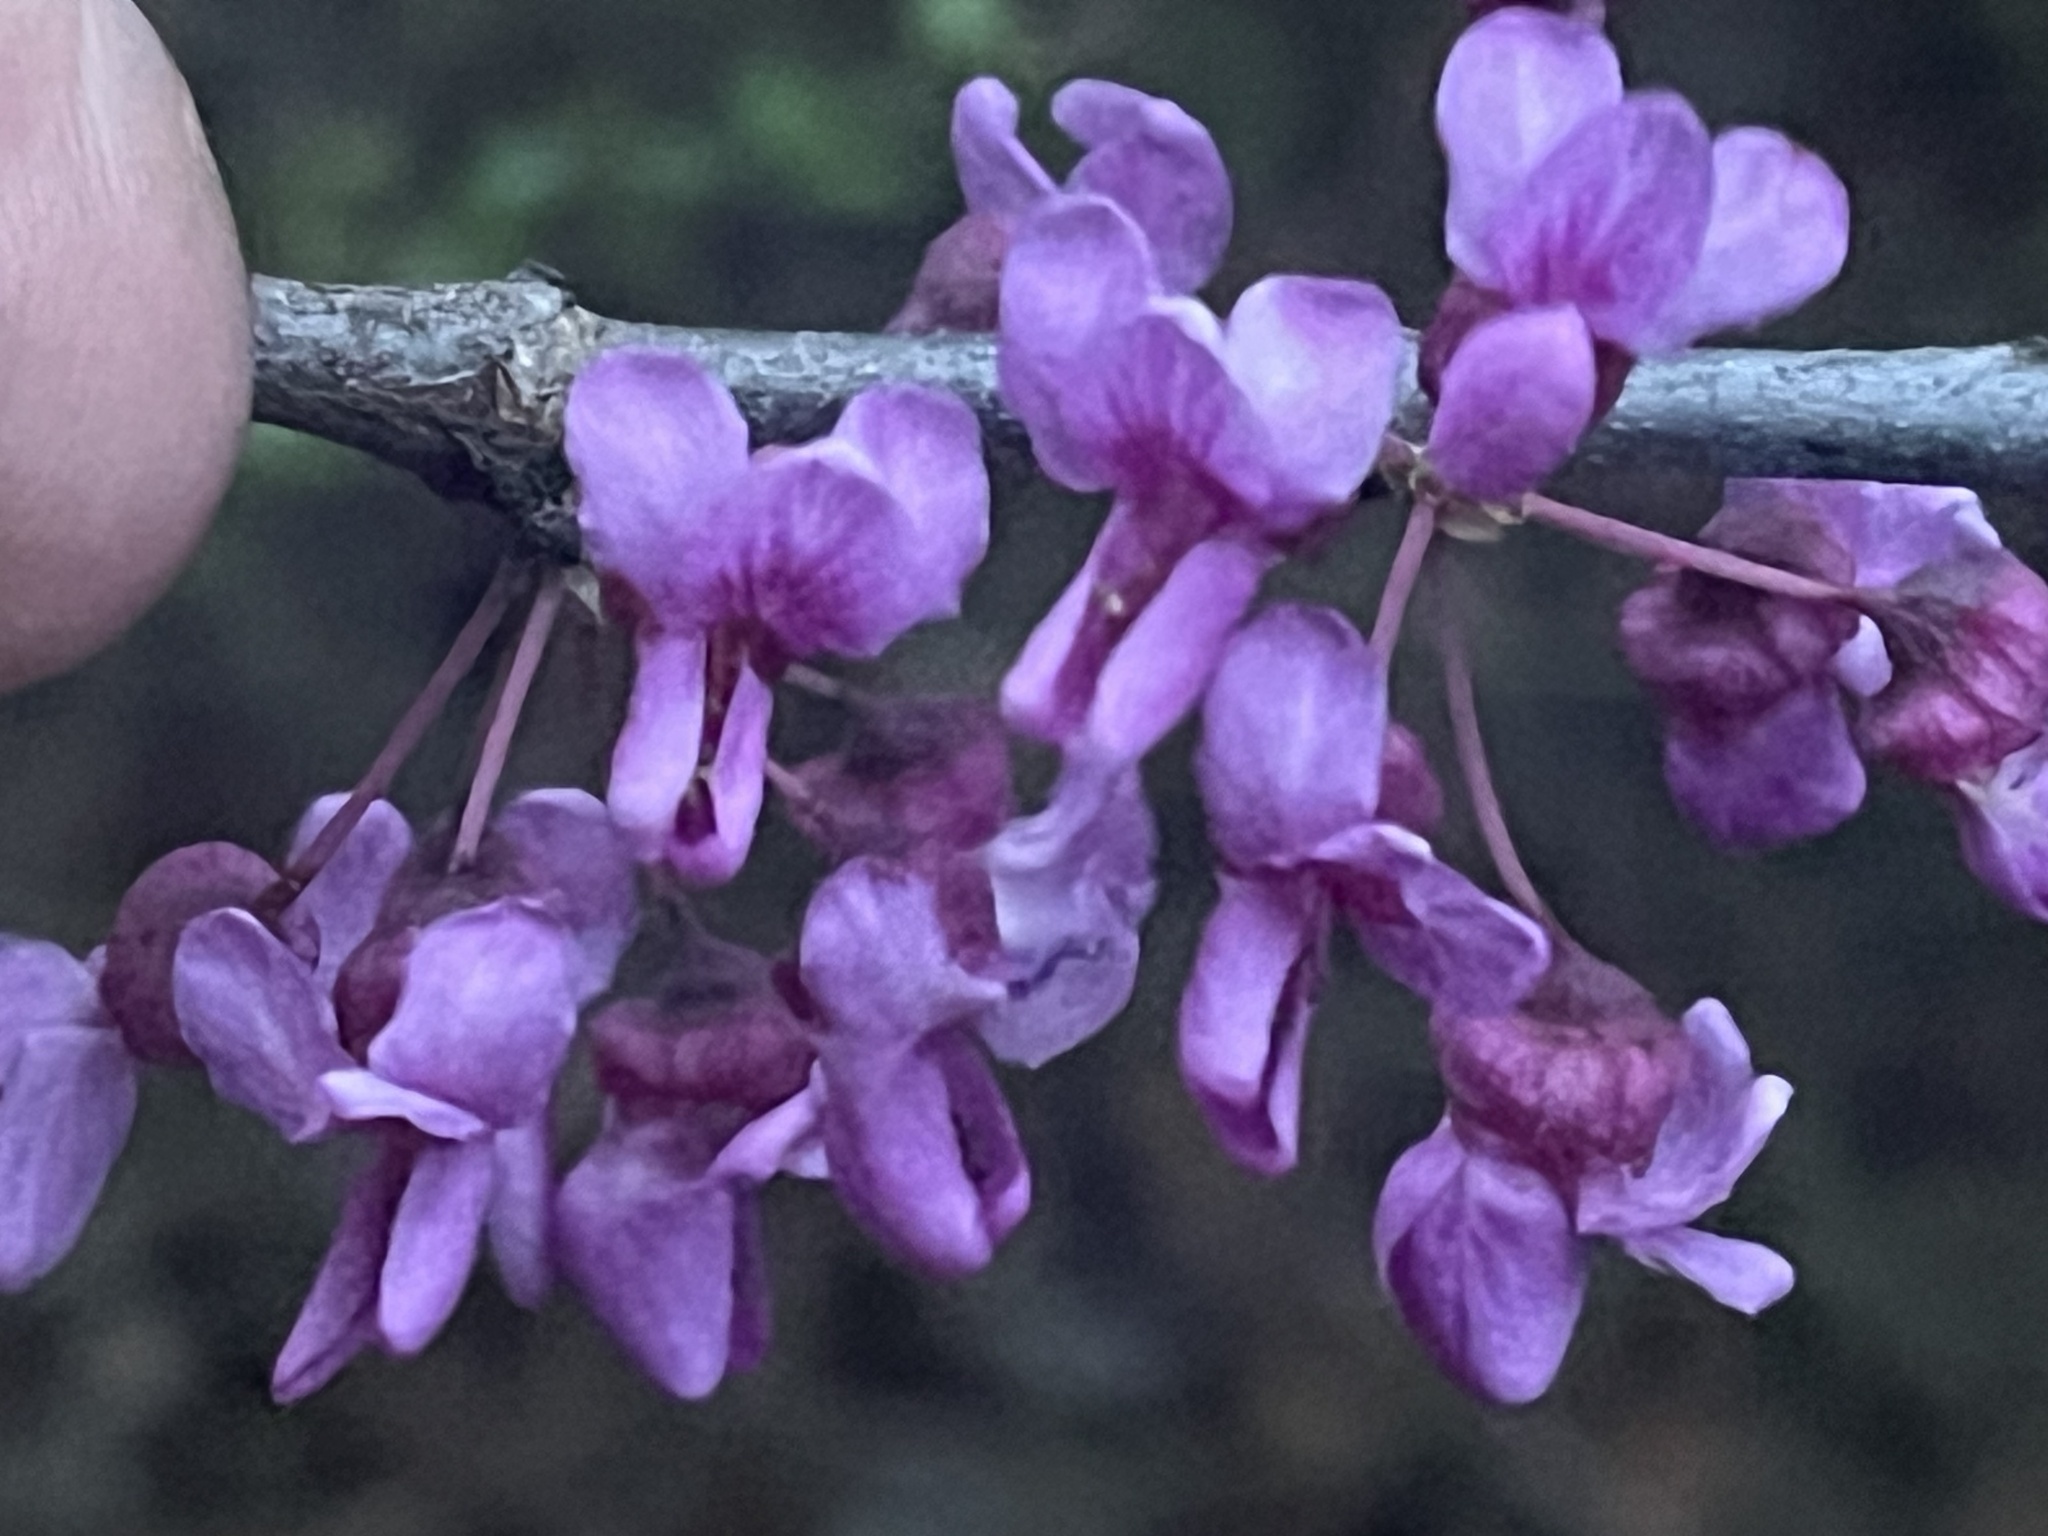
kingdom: Plantae
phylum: Tracheophyta
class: Magnoliopsida
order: Fabales
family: Fabaceae
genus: Cercis
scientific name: Cercis canadensis
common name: Eastern redbud
